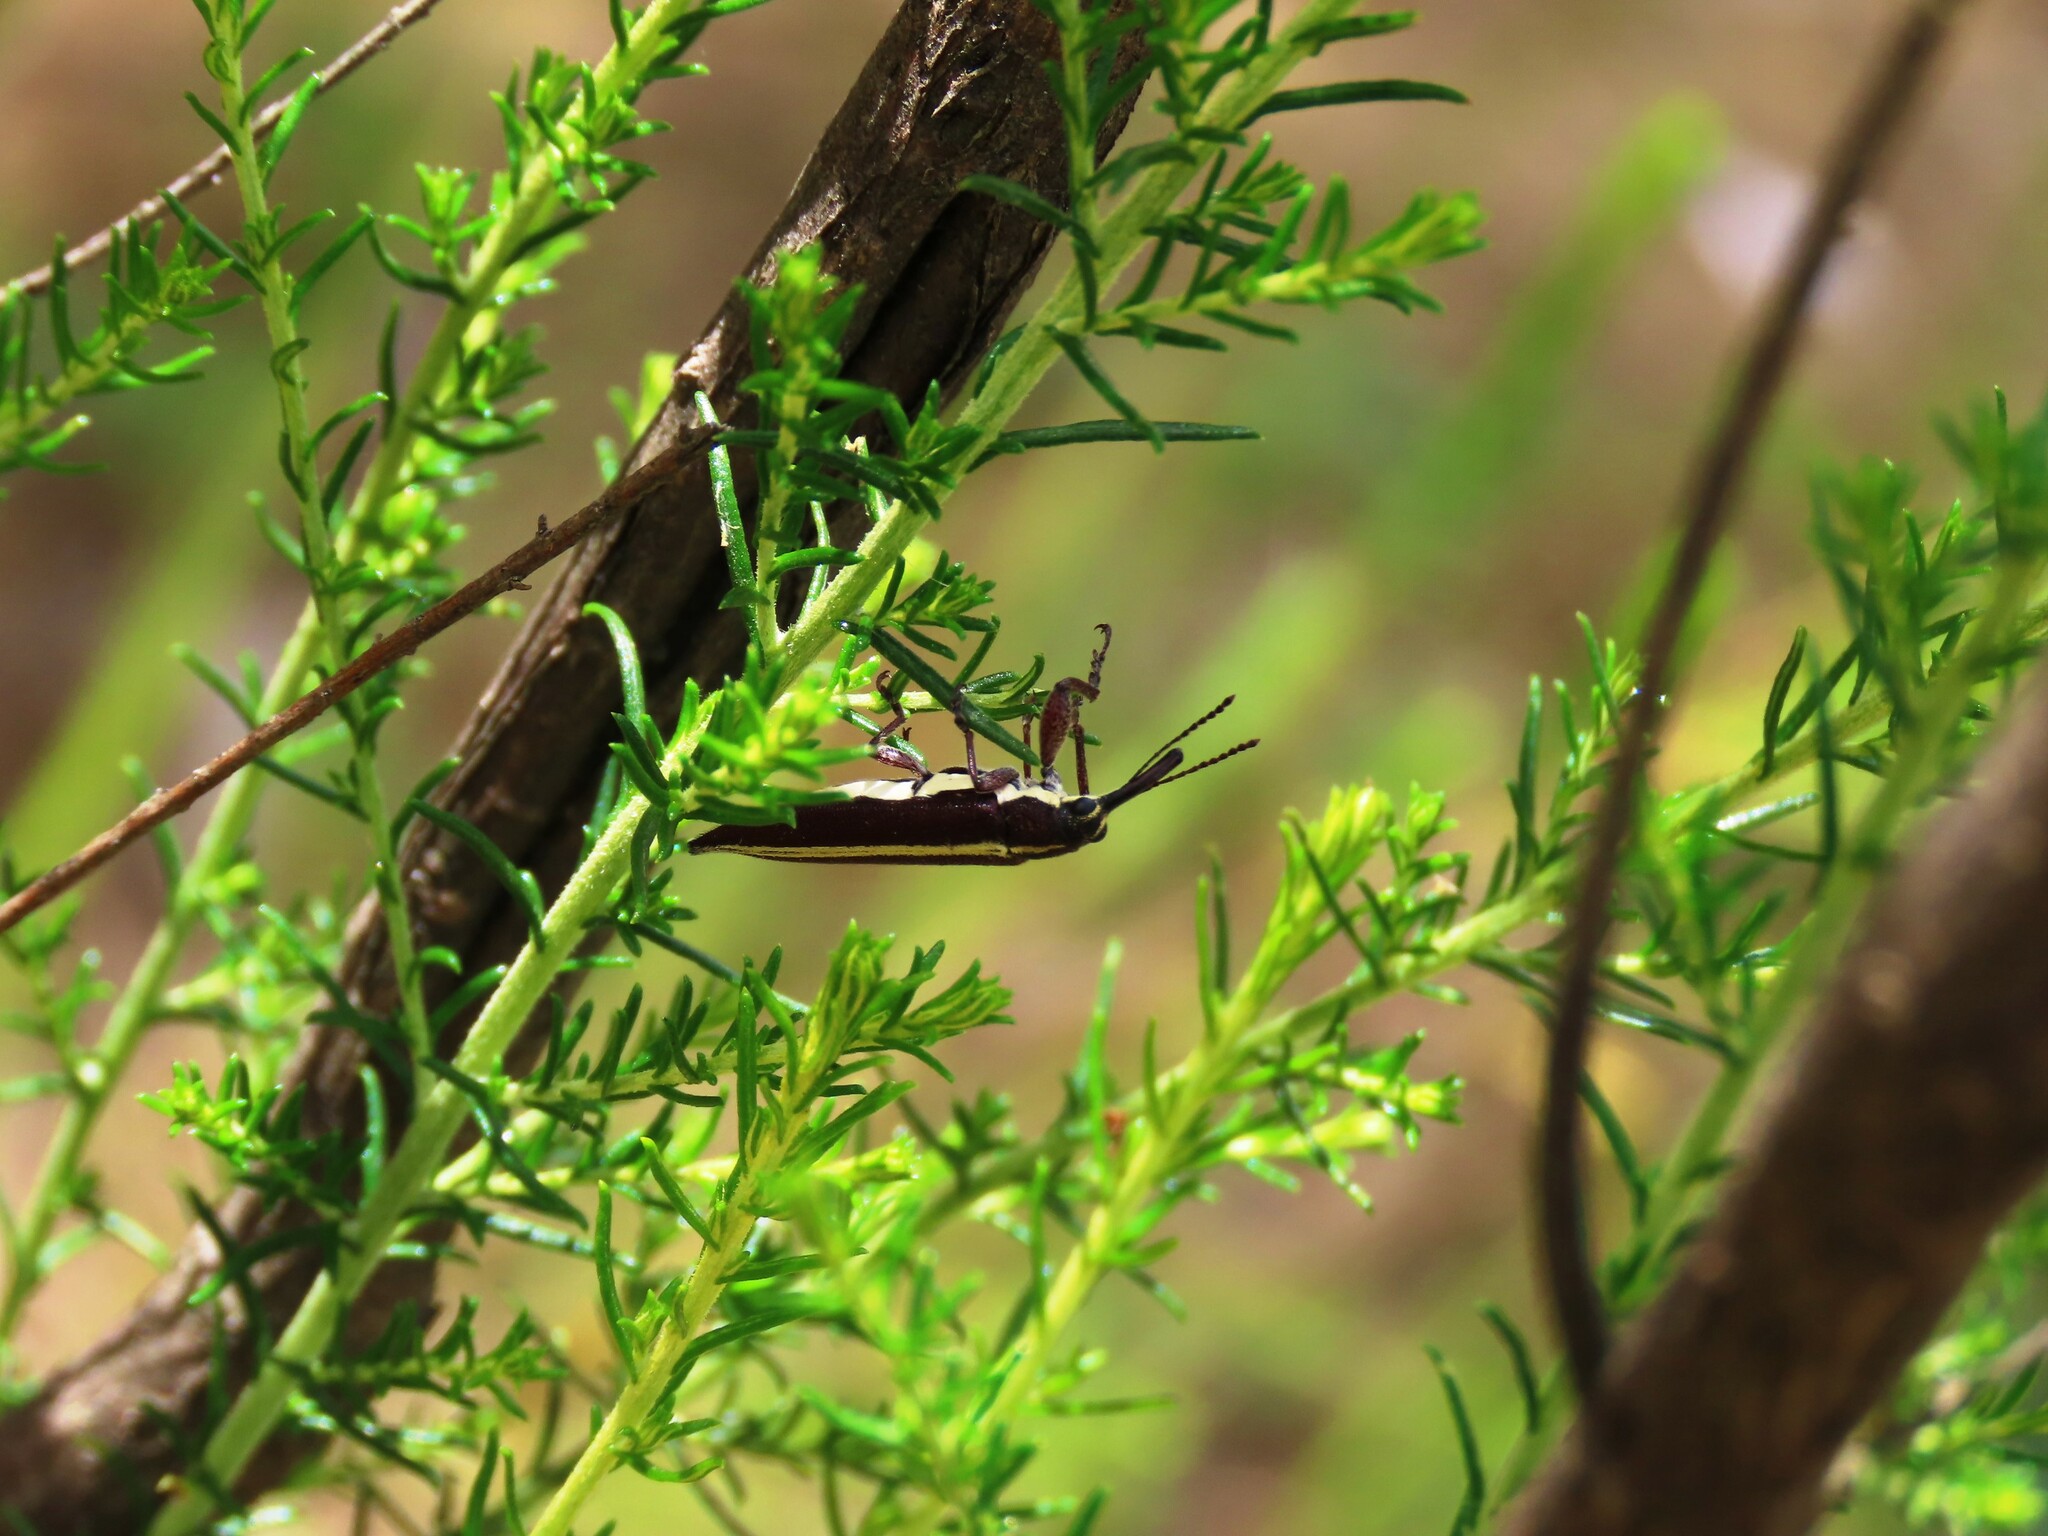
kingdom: Animalia
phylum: Arthropoda
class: Insecta
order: Coleoptera
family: Belidae
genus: Rhinotia
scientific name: Rhinotia suturalis
